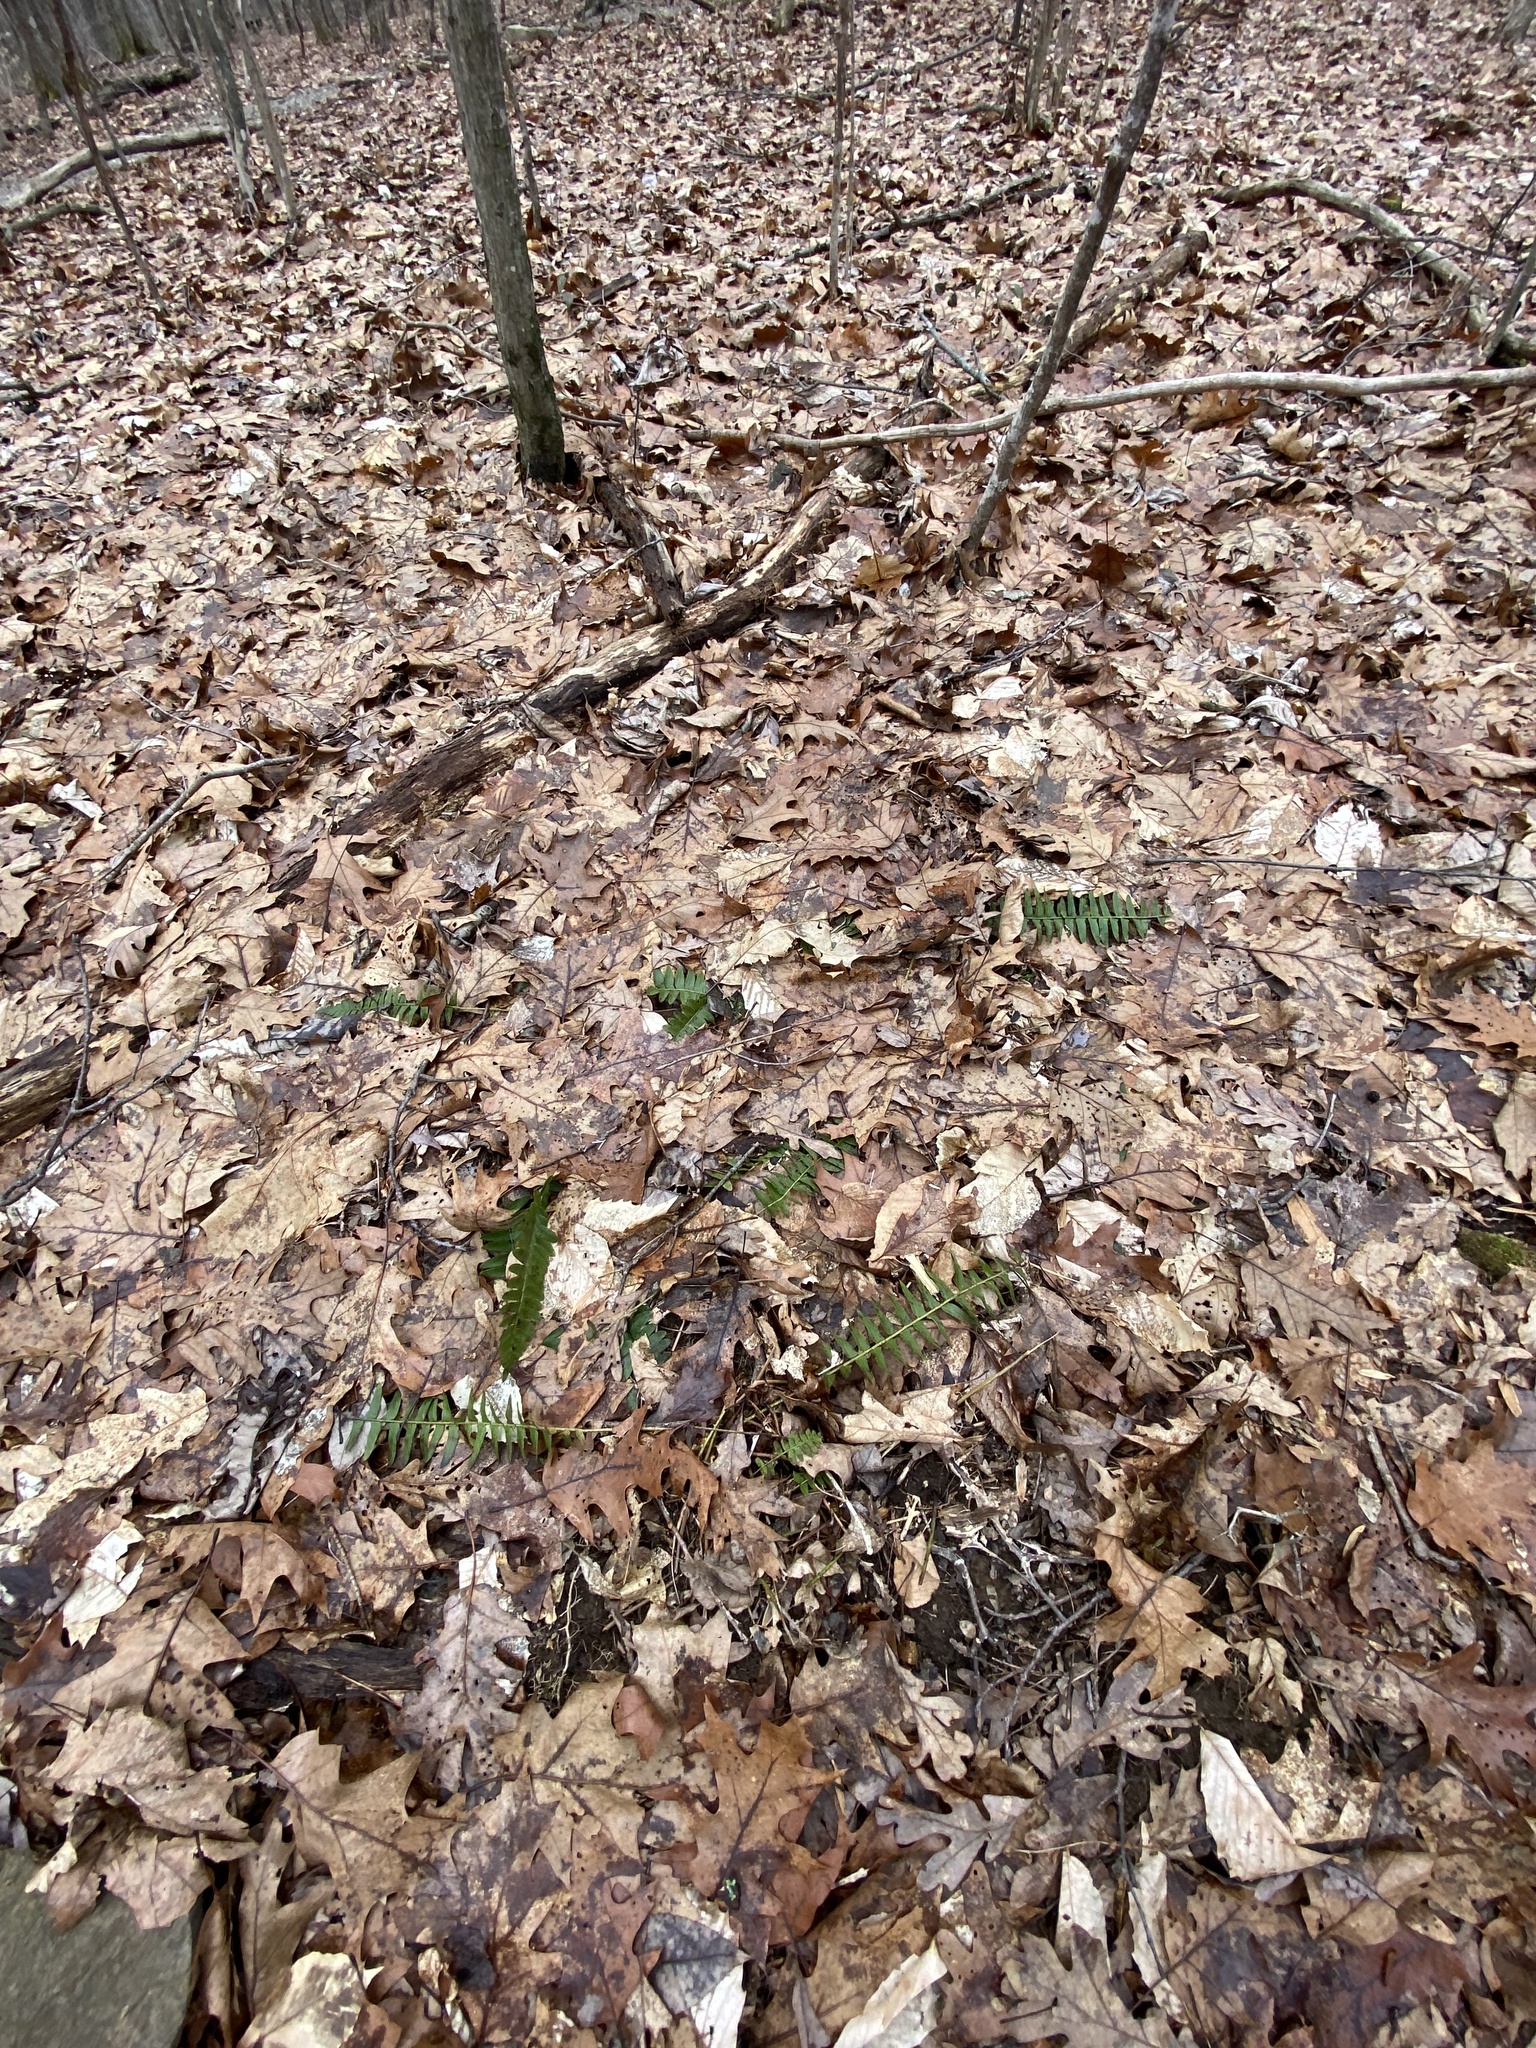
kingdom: Plantae
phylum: Tracheophyta
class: Polypodiopsida
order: Polypodiales
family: Dryopteridaceae
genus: Polystichum
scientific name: Polystichum acrostichoides
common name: Christmas fern
